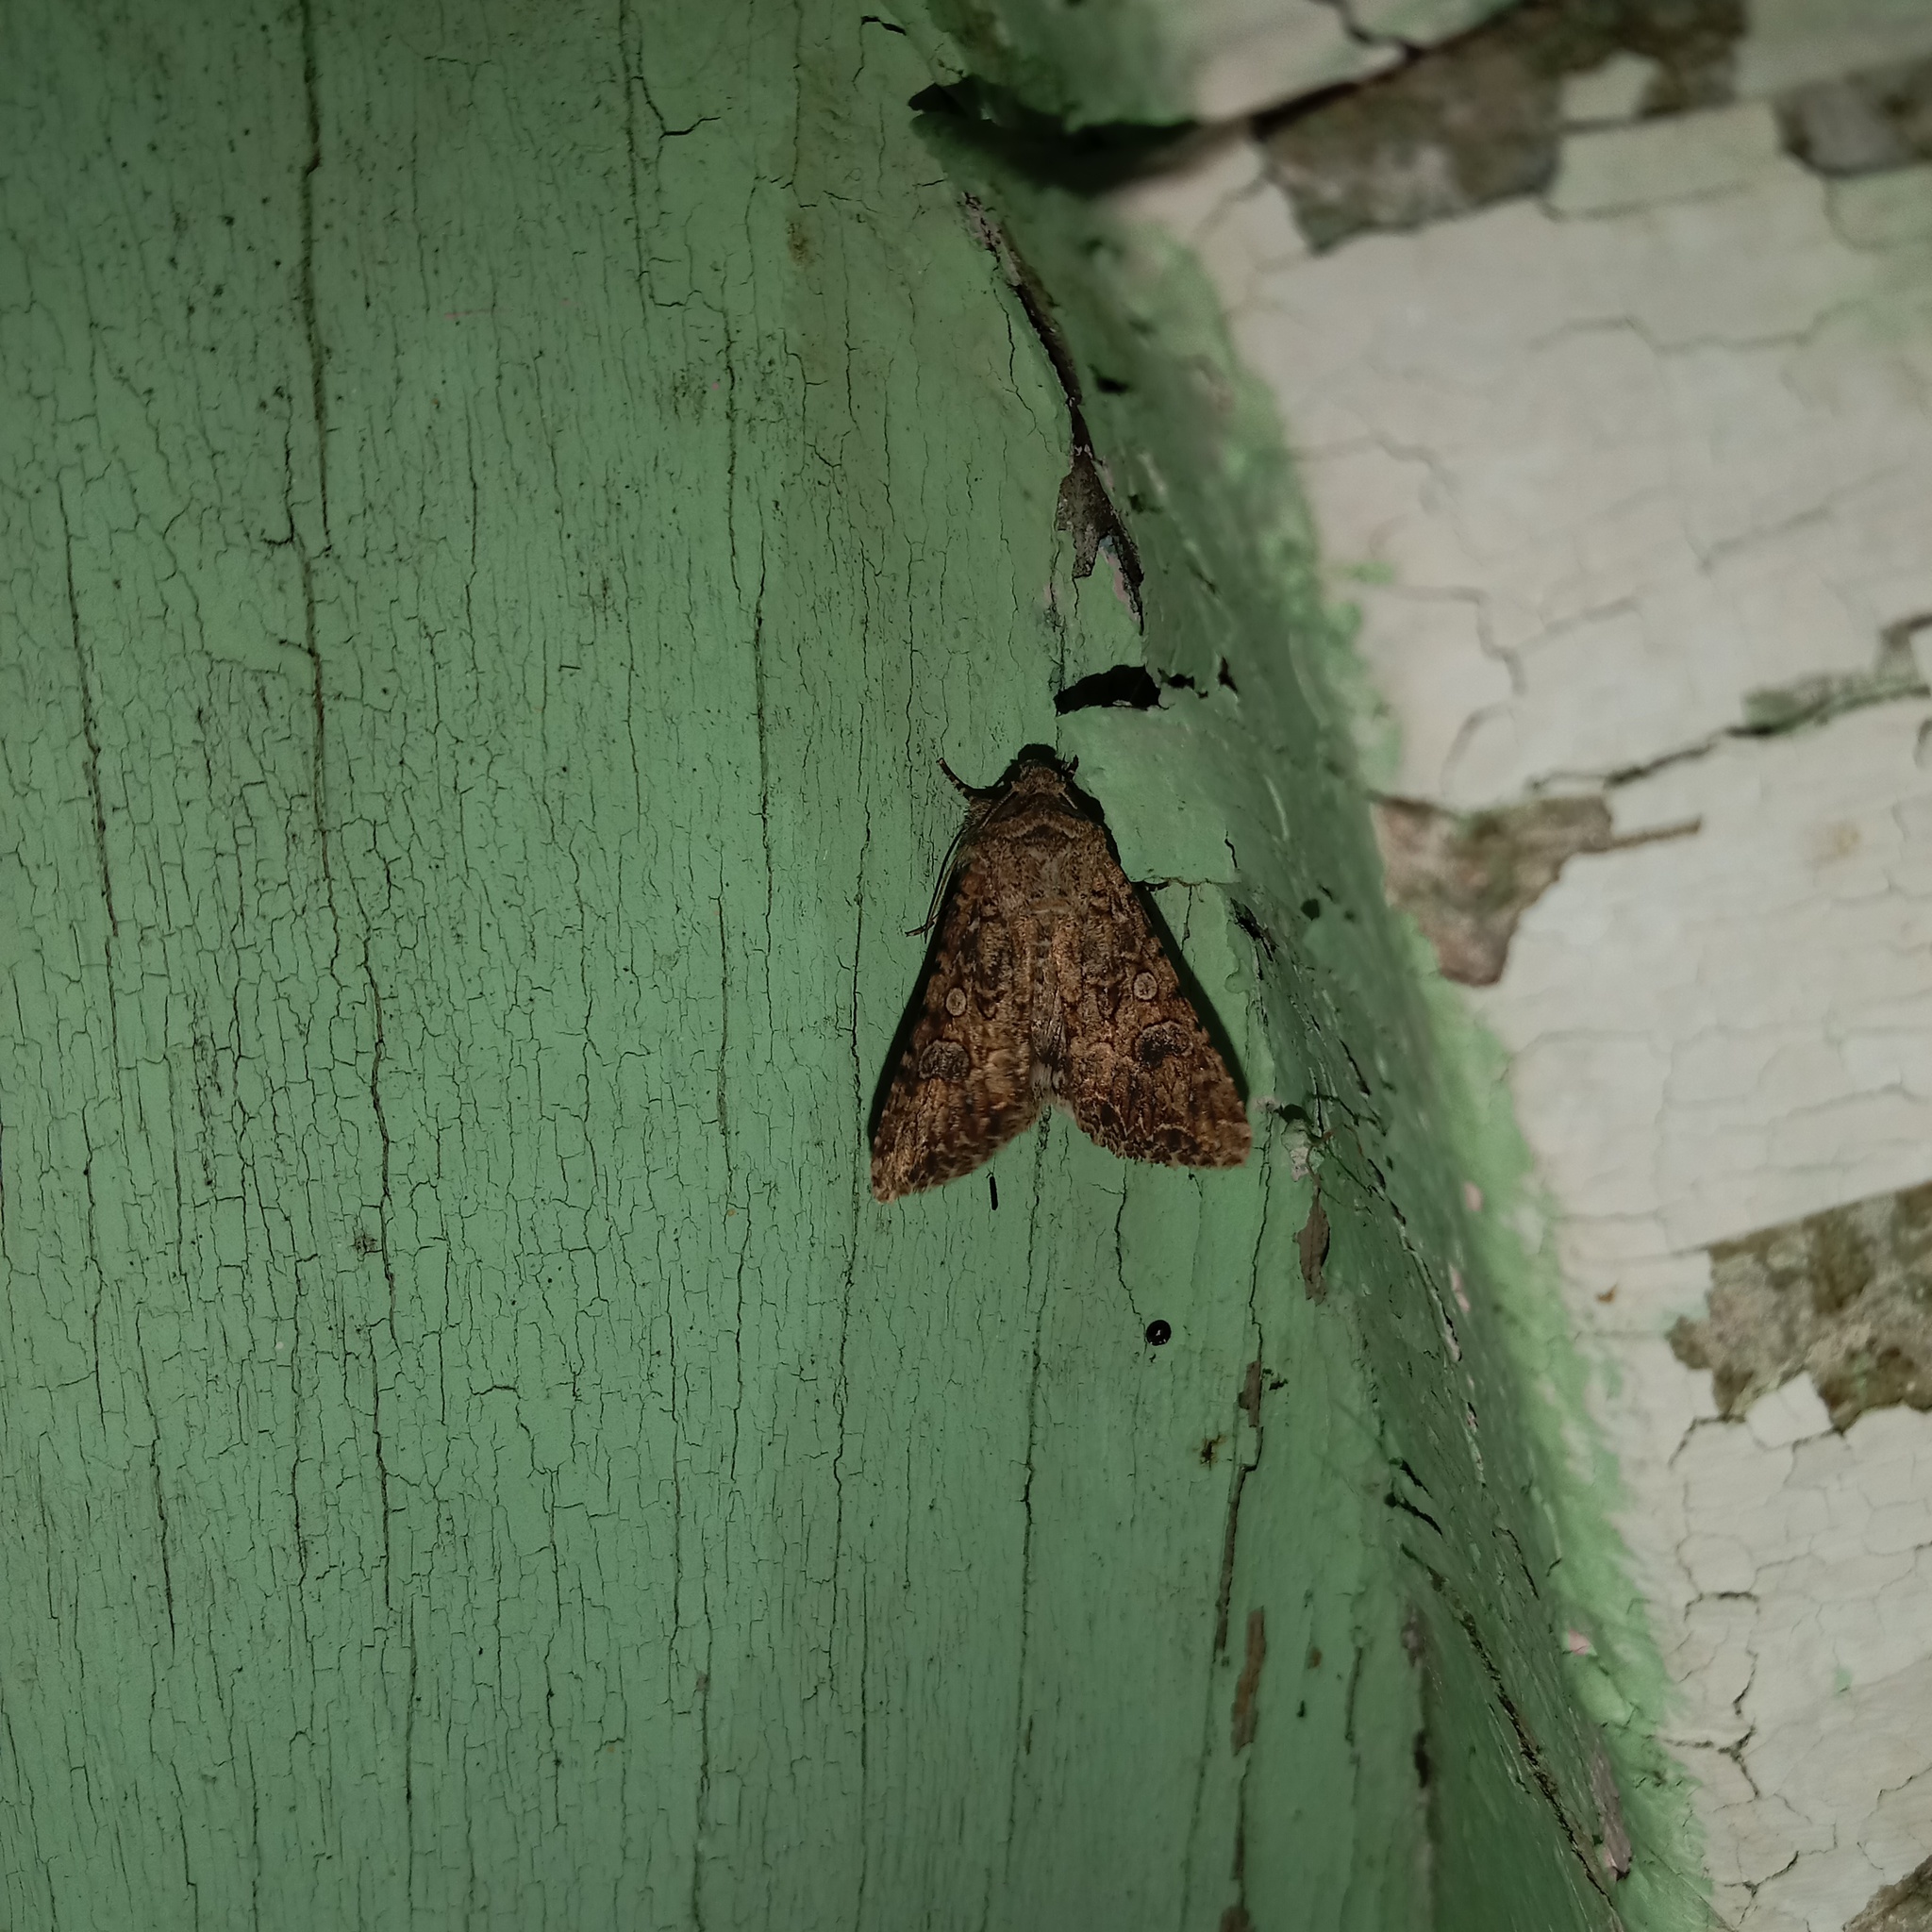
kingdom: Animalia
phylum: Arthropoda
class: Insecta
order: Lepidoptera
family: Noctuidae
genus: Anarta
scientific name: Anarta trifolii
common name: Clover cutworm moth
